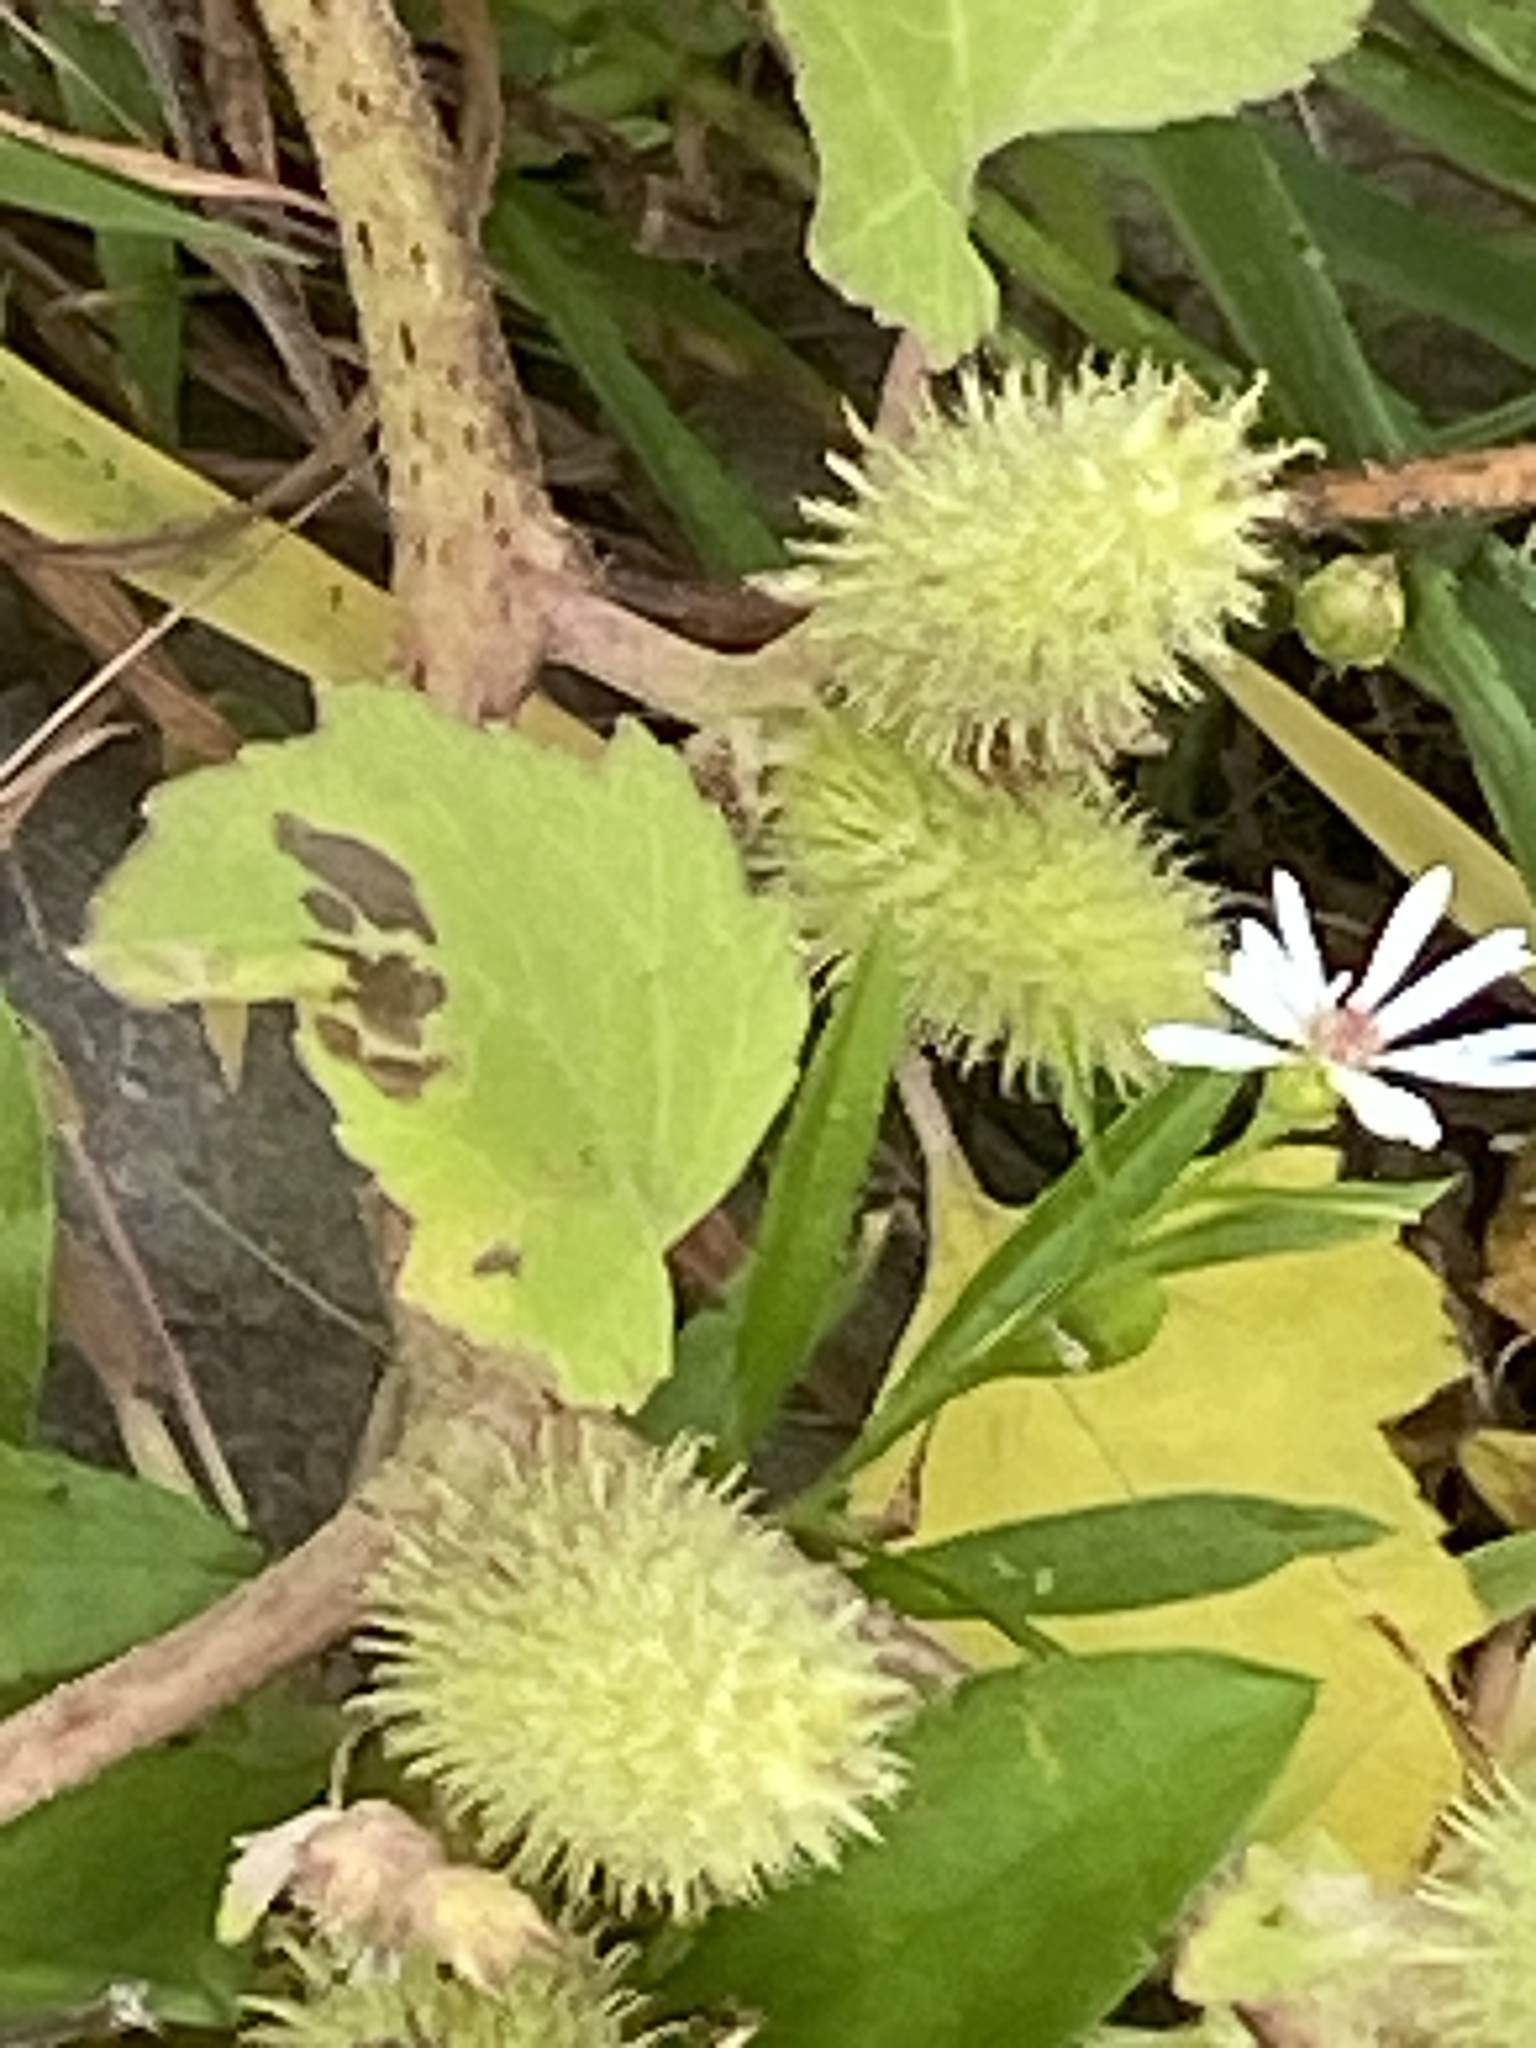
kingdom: Plantae
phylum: Tracheophyta
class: Magnoliopsida
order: Asterales
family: Asteraceae
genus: Xanthium
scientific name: Xanthium strumarium
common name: Rough cocklebur
